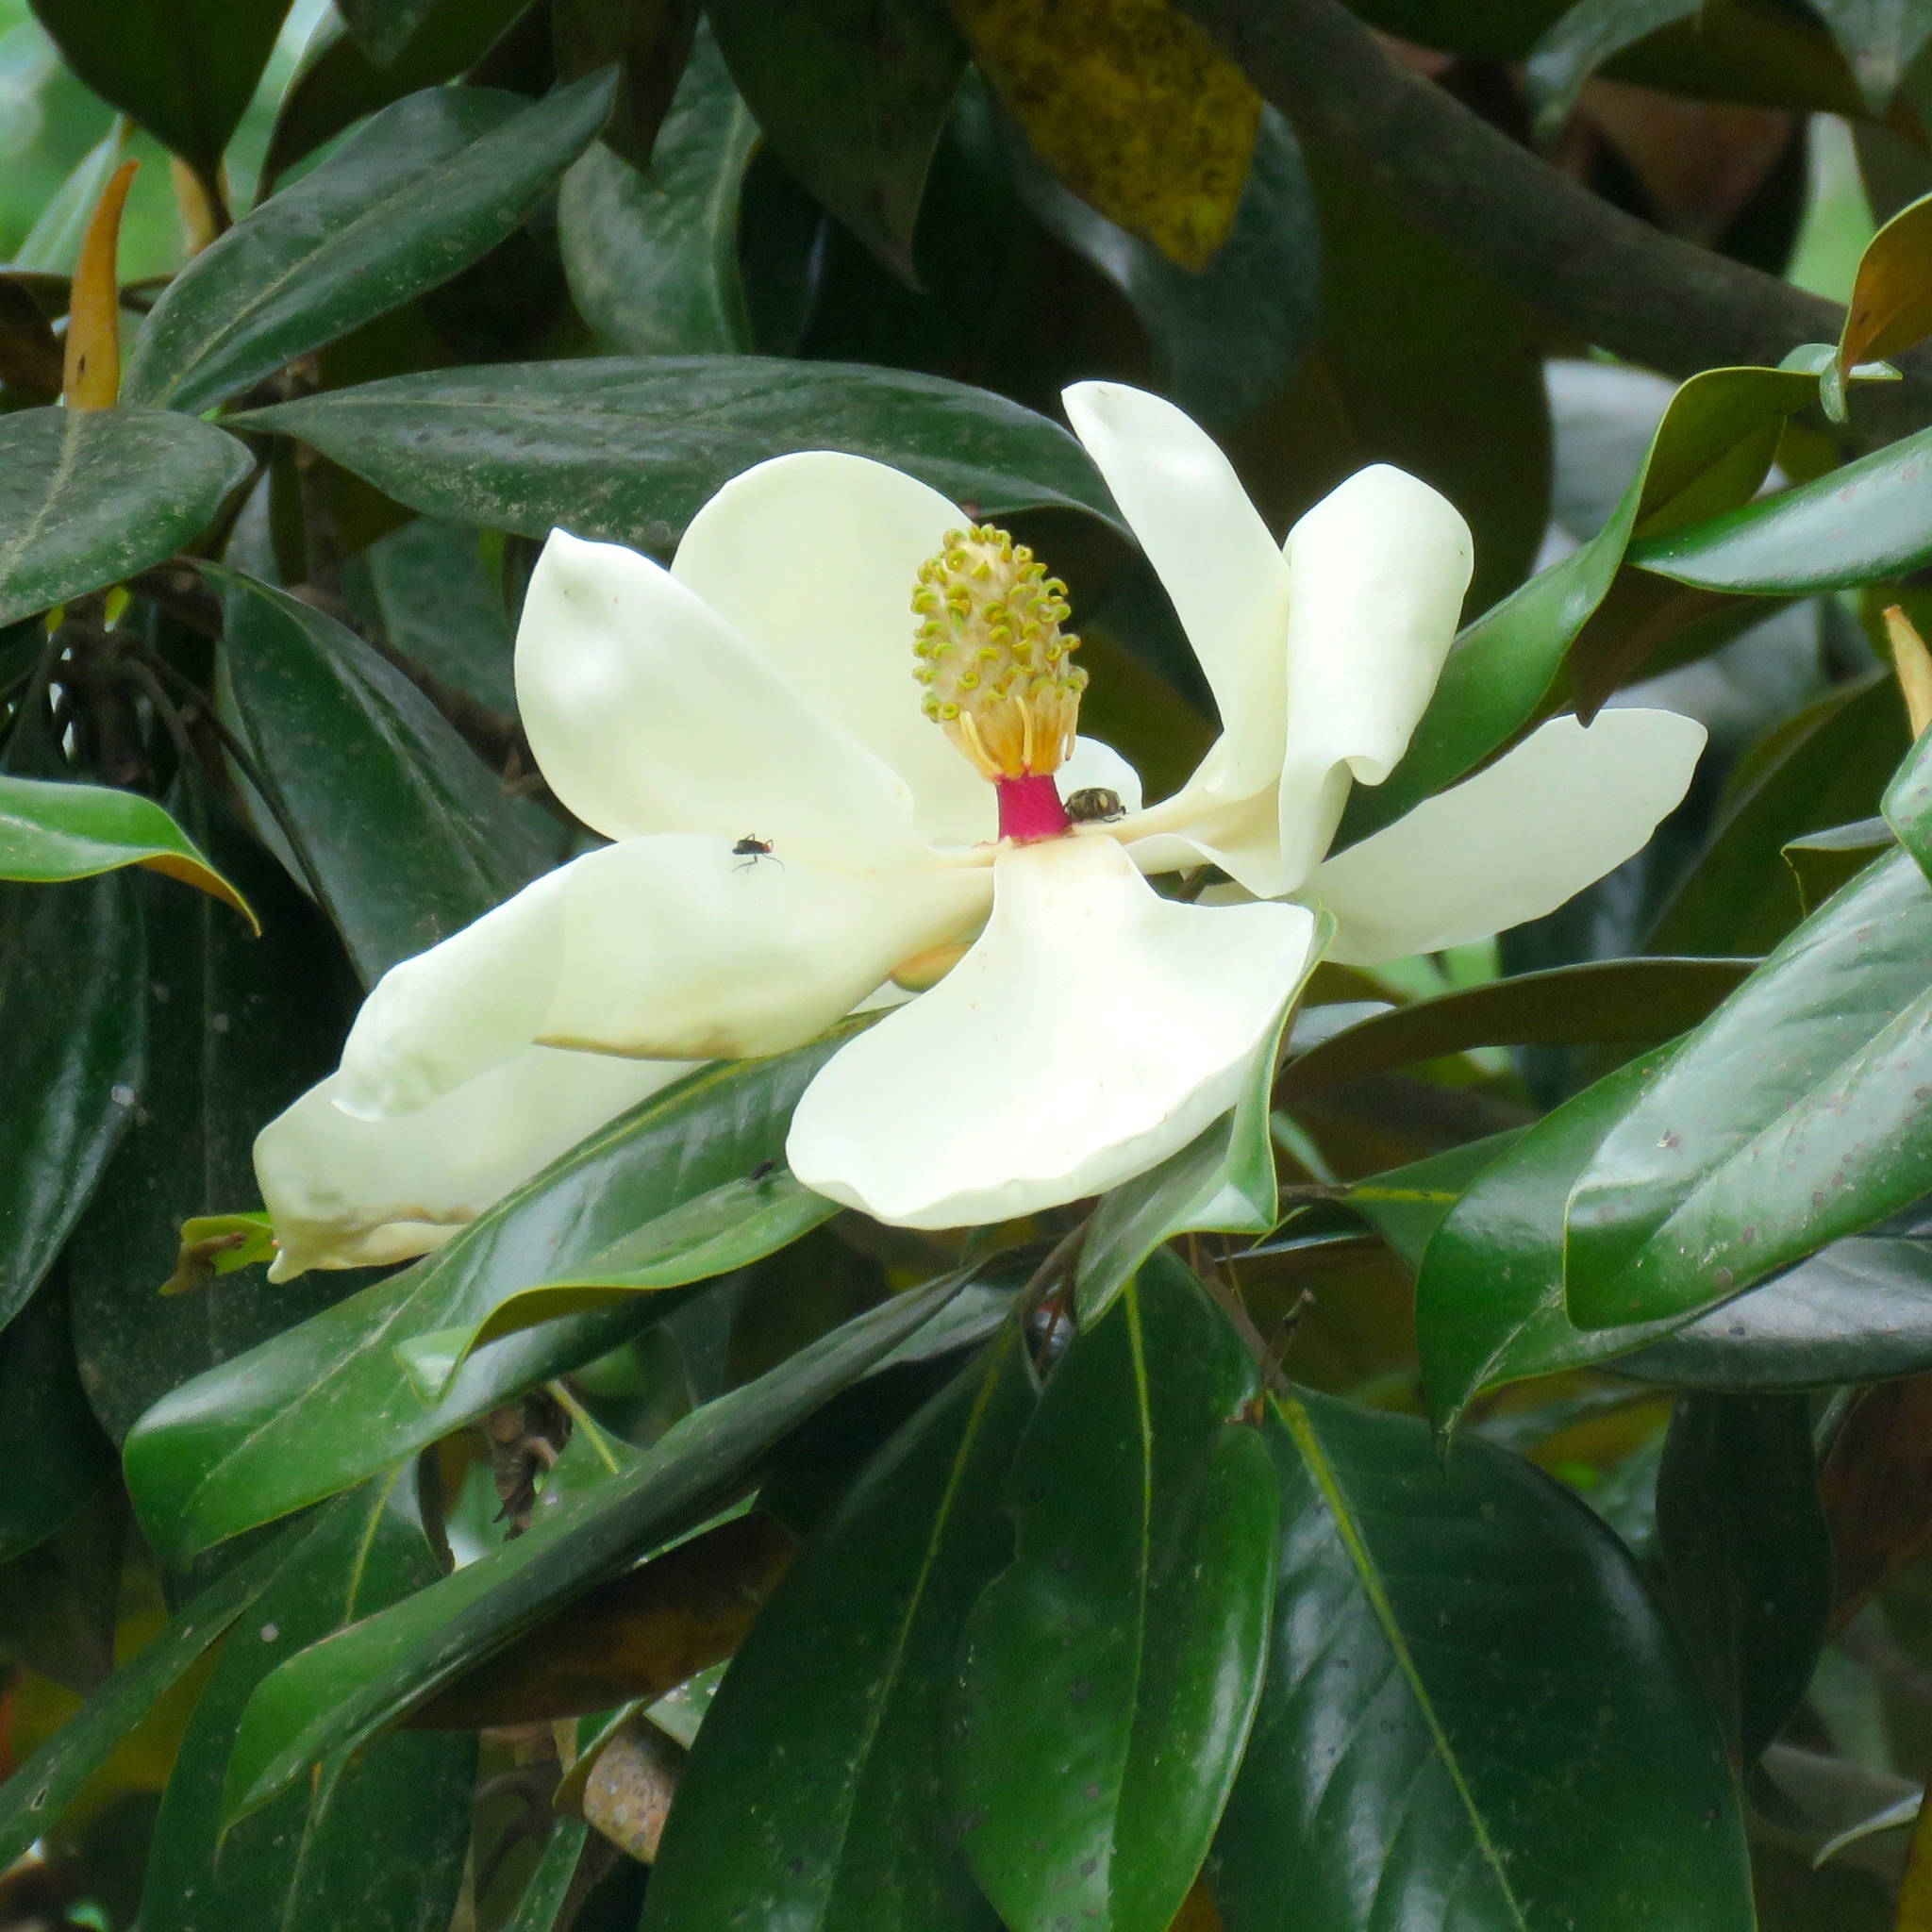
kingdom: Plantae
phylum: Tracheophyta
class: Magnoliopsida
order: Magnoliales
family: Magnoliaceae
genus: Magnolia
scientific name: Magnolia grandiflora
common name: Southern magnolia
